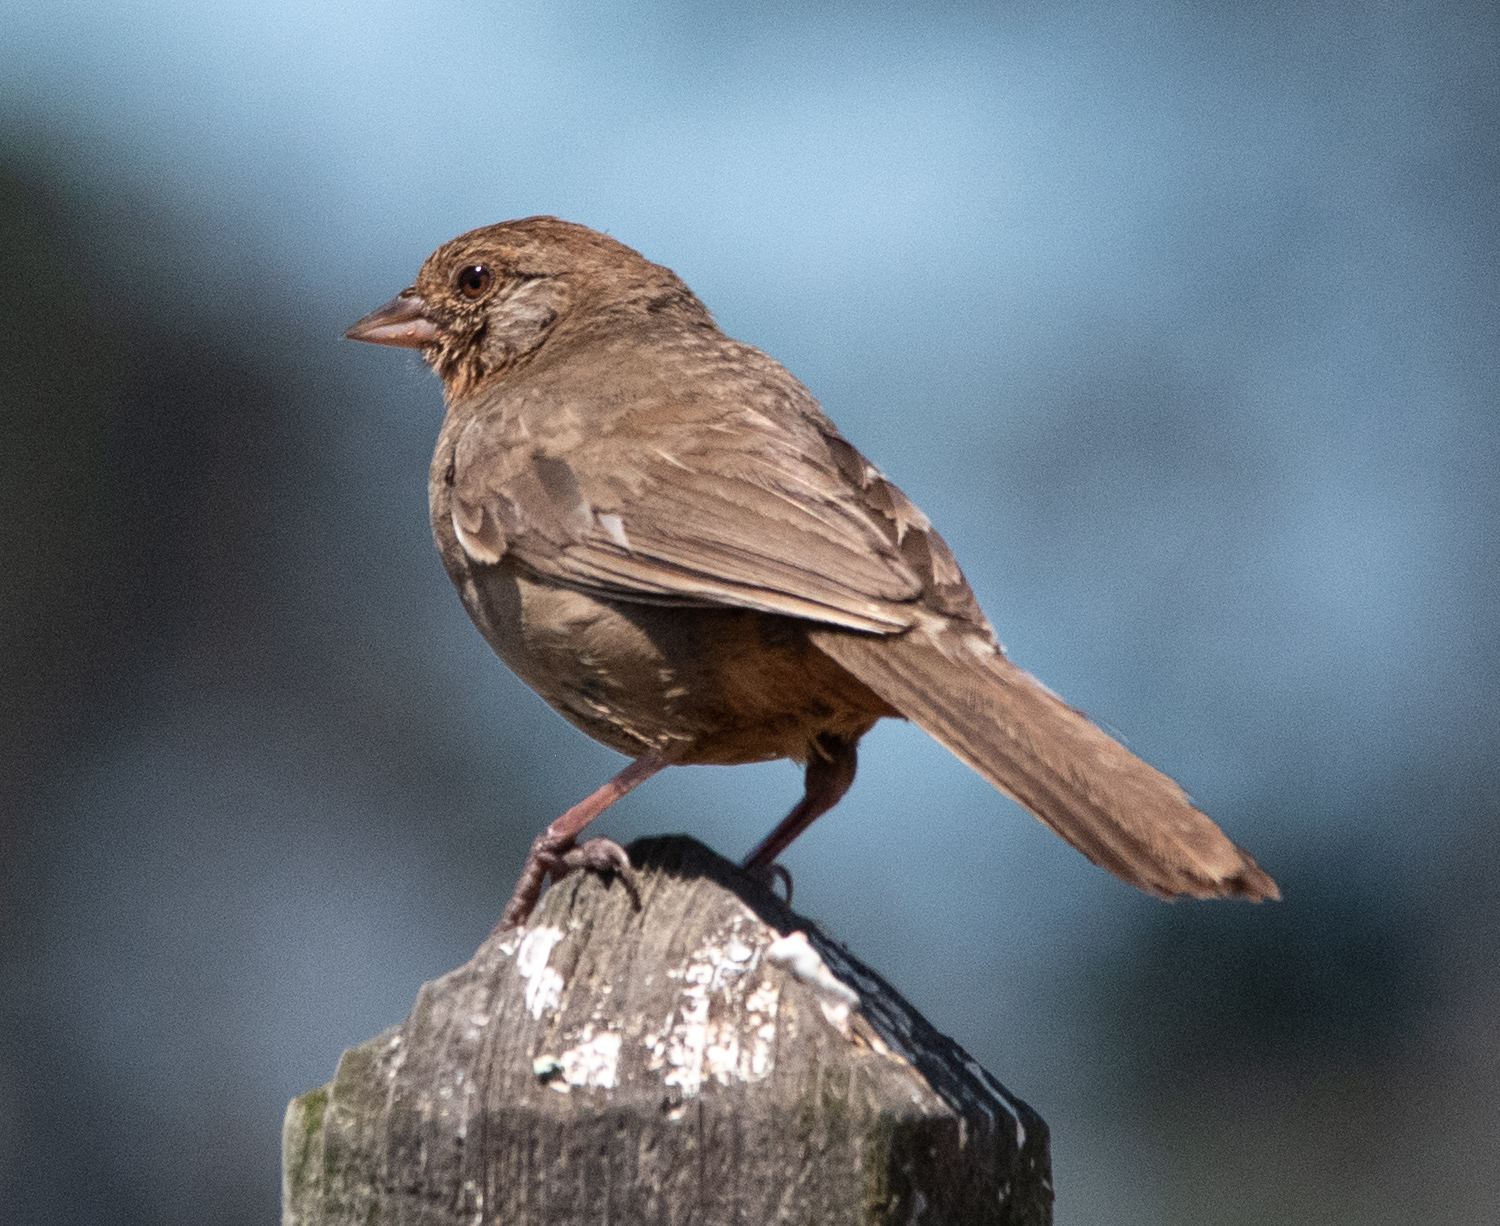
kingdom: Animalia
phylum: Chordata
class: Aves
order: Passeriformes
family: Passerellidae
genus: Melozone
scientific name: Melozone crissalis
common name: California towhee
